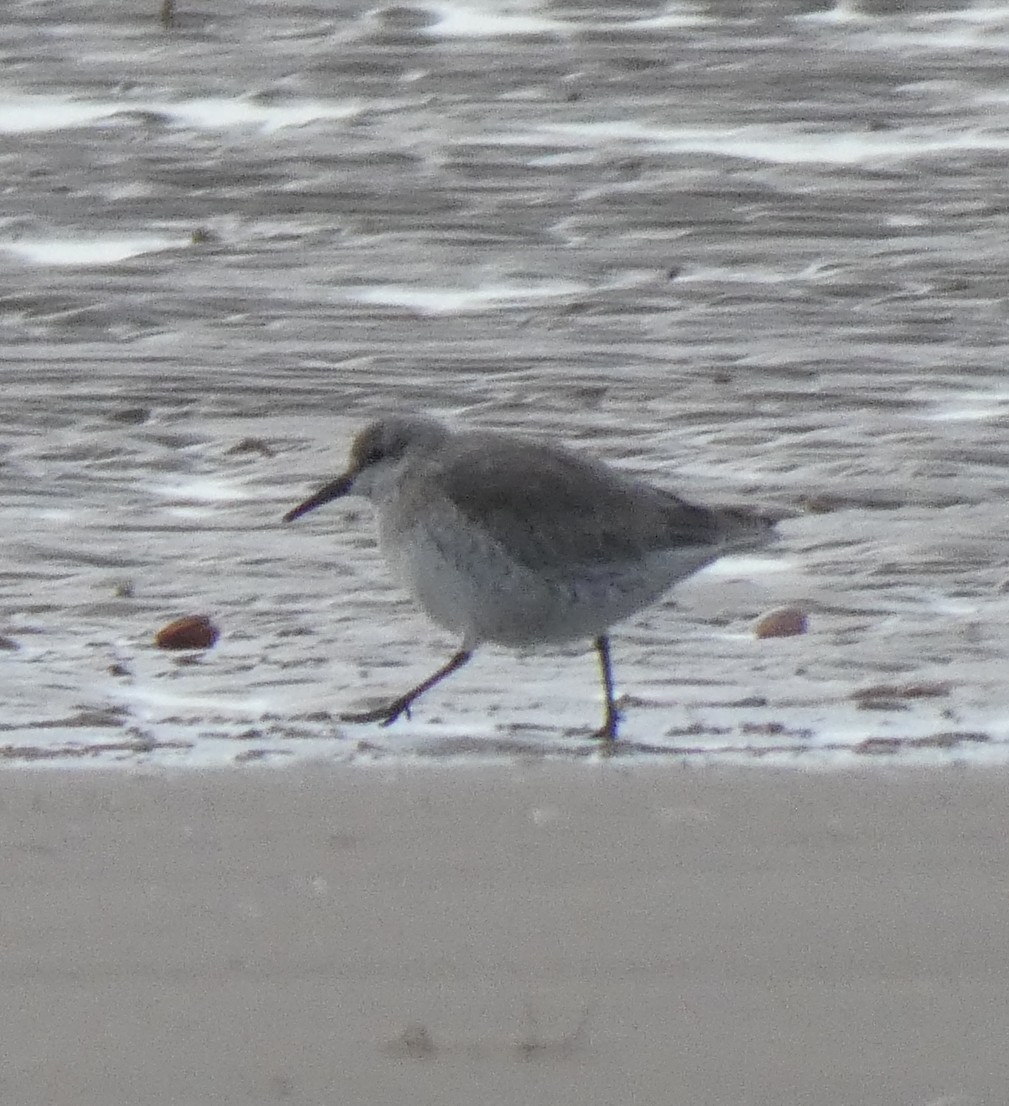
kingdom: Animalia
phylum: Chordata
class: Aves
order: Charadriiformes
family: Scolopacidae
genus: Calidris
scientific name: Calidris canutus
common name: Red knot
